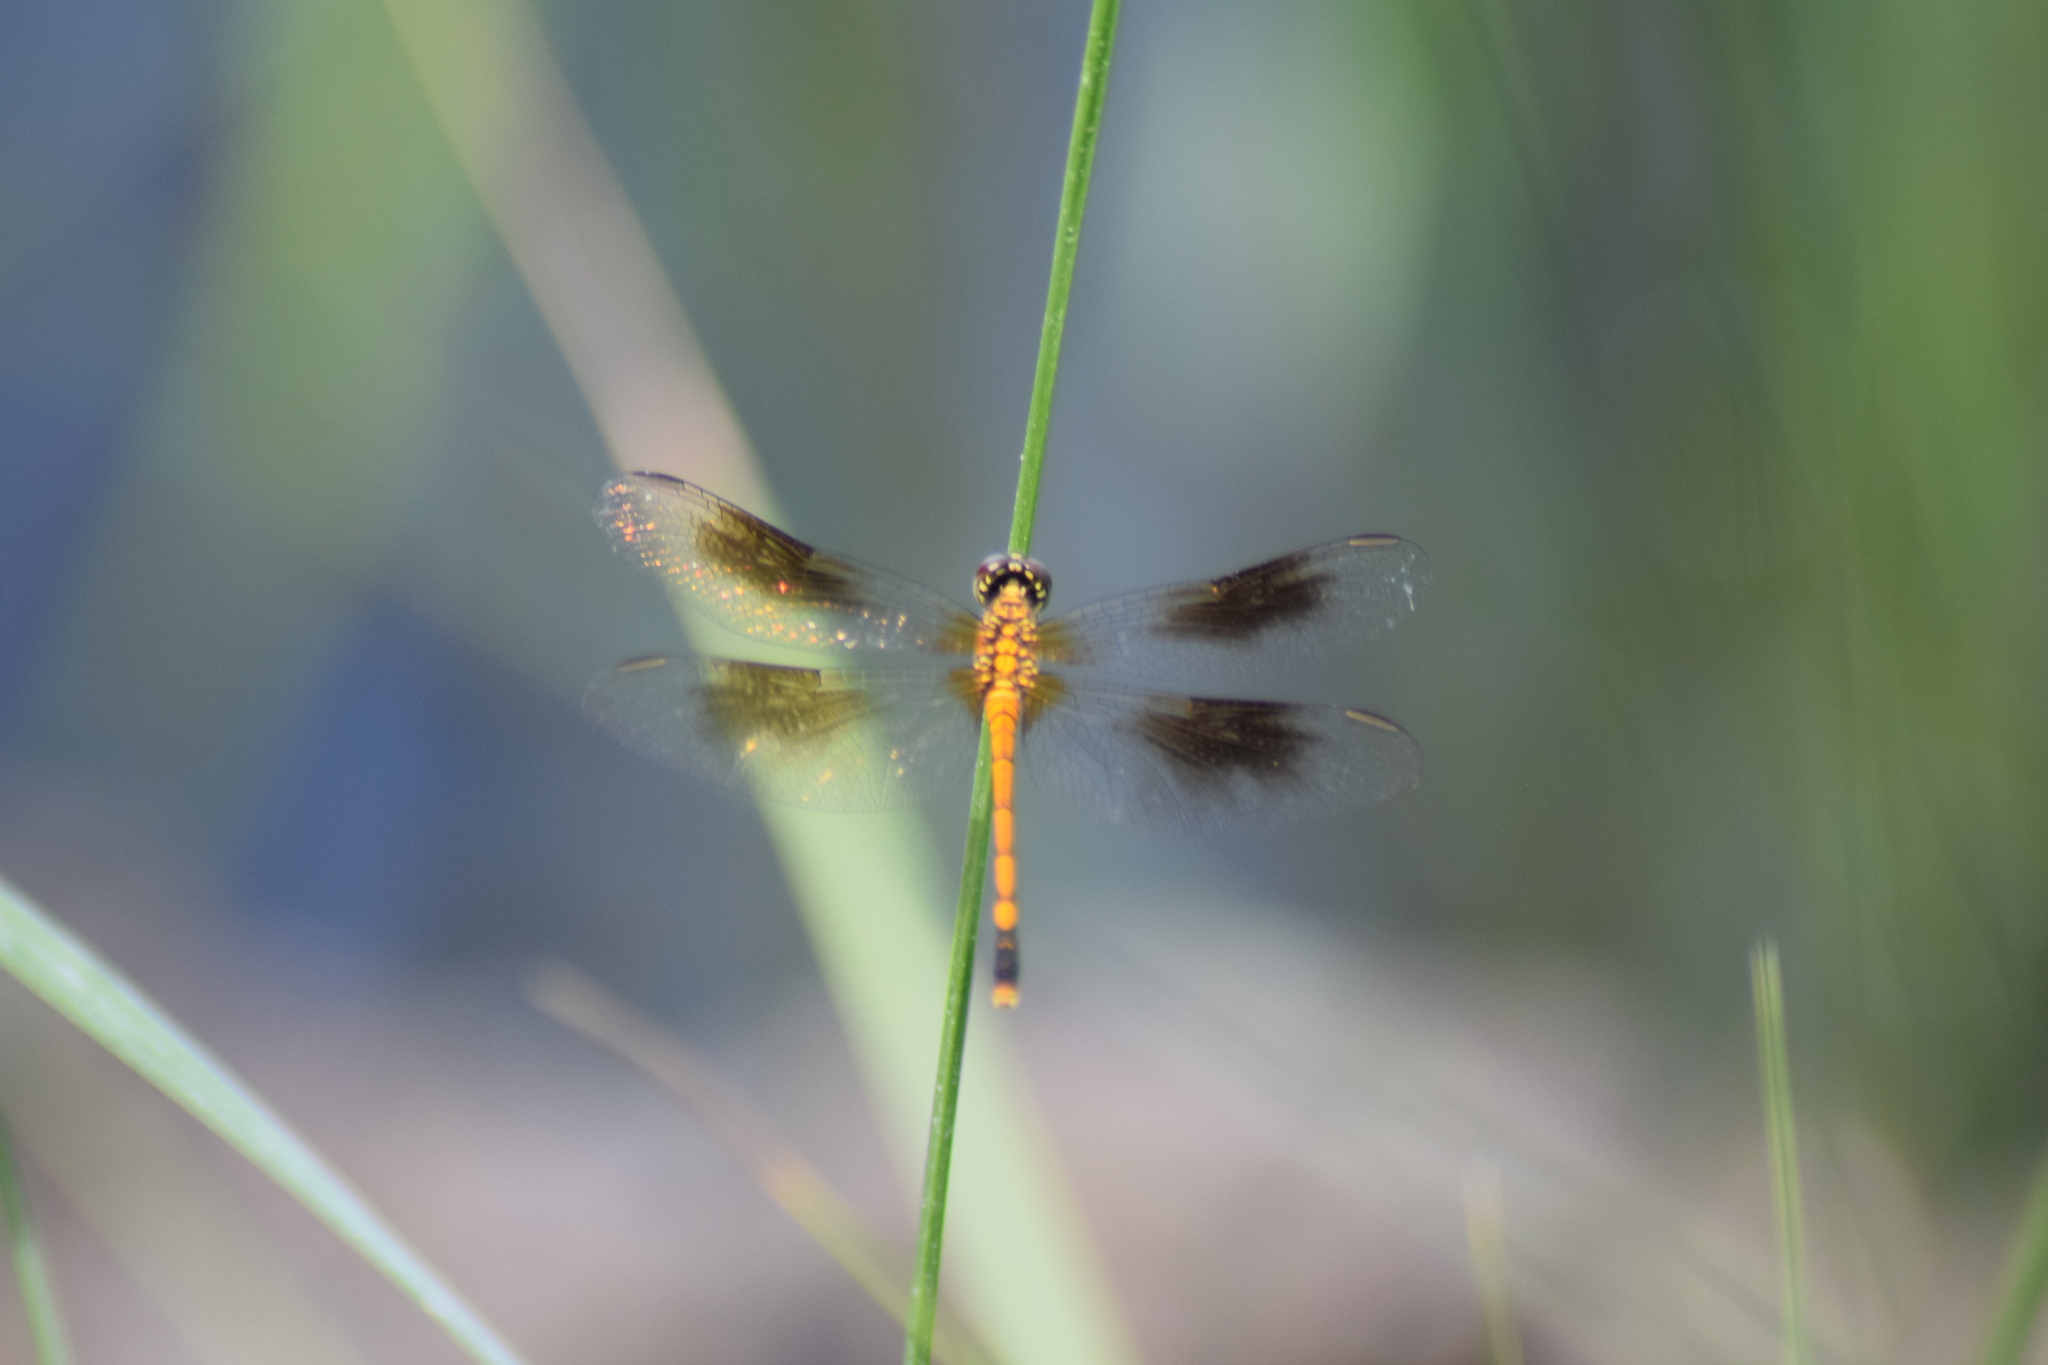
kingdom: Animalia
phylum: Arthropoda
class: Insecta
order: Odonata
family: Libellulidae
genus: Erythrodiplax
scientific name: Erythrodiplax berenice
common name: Seaside dragonlet
